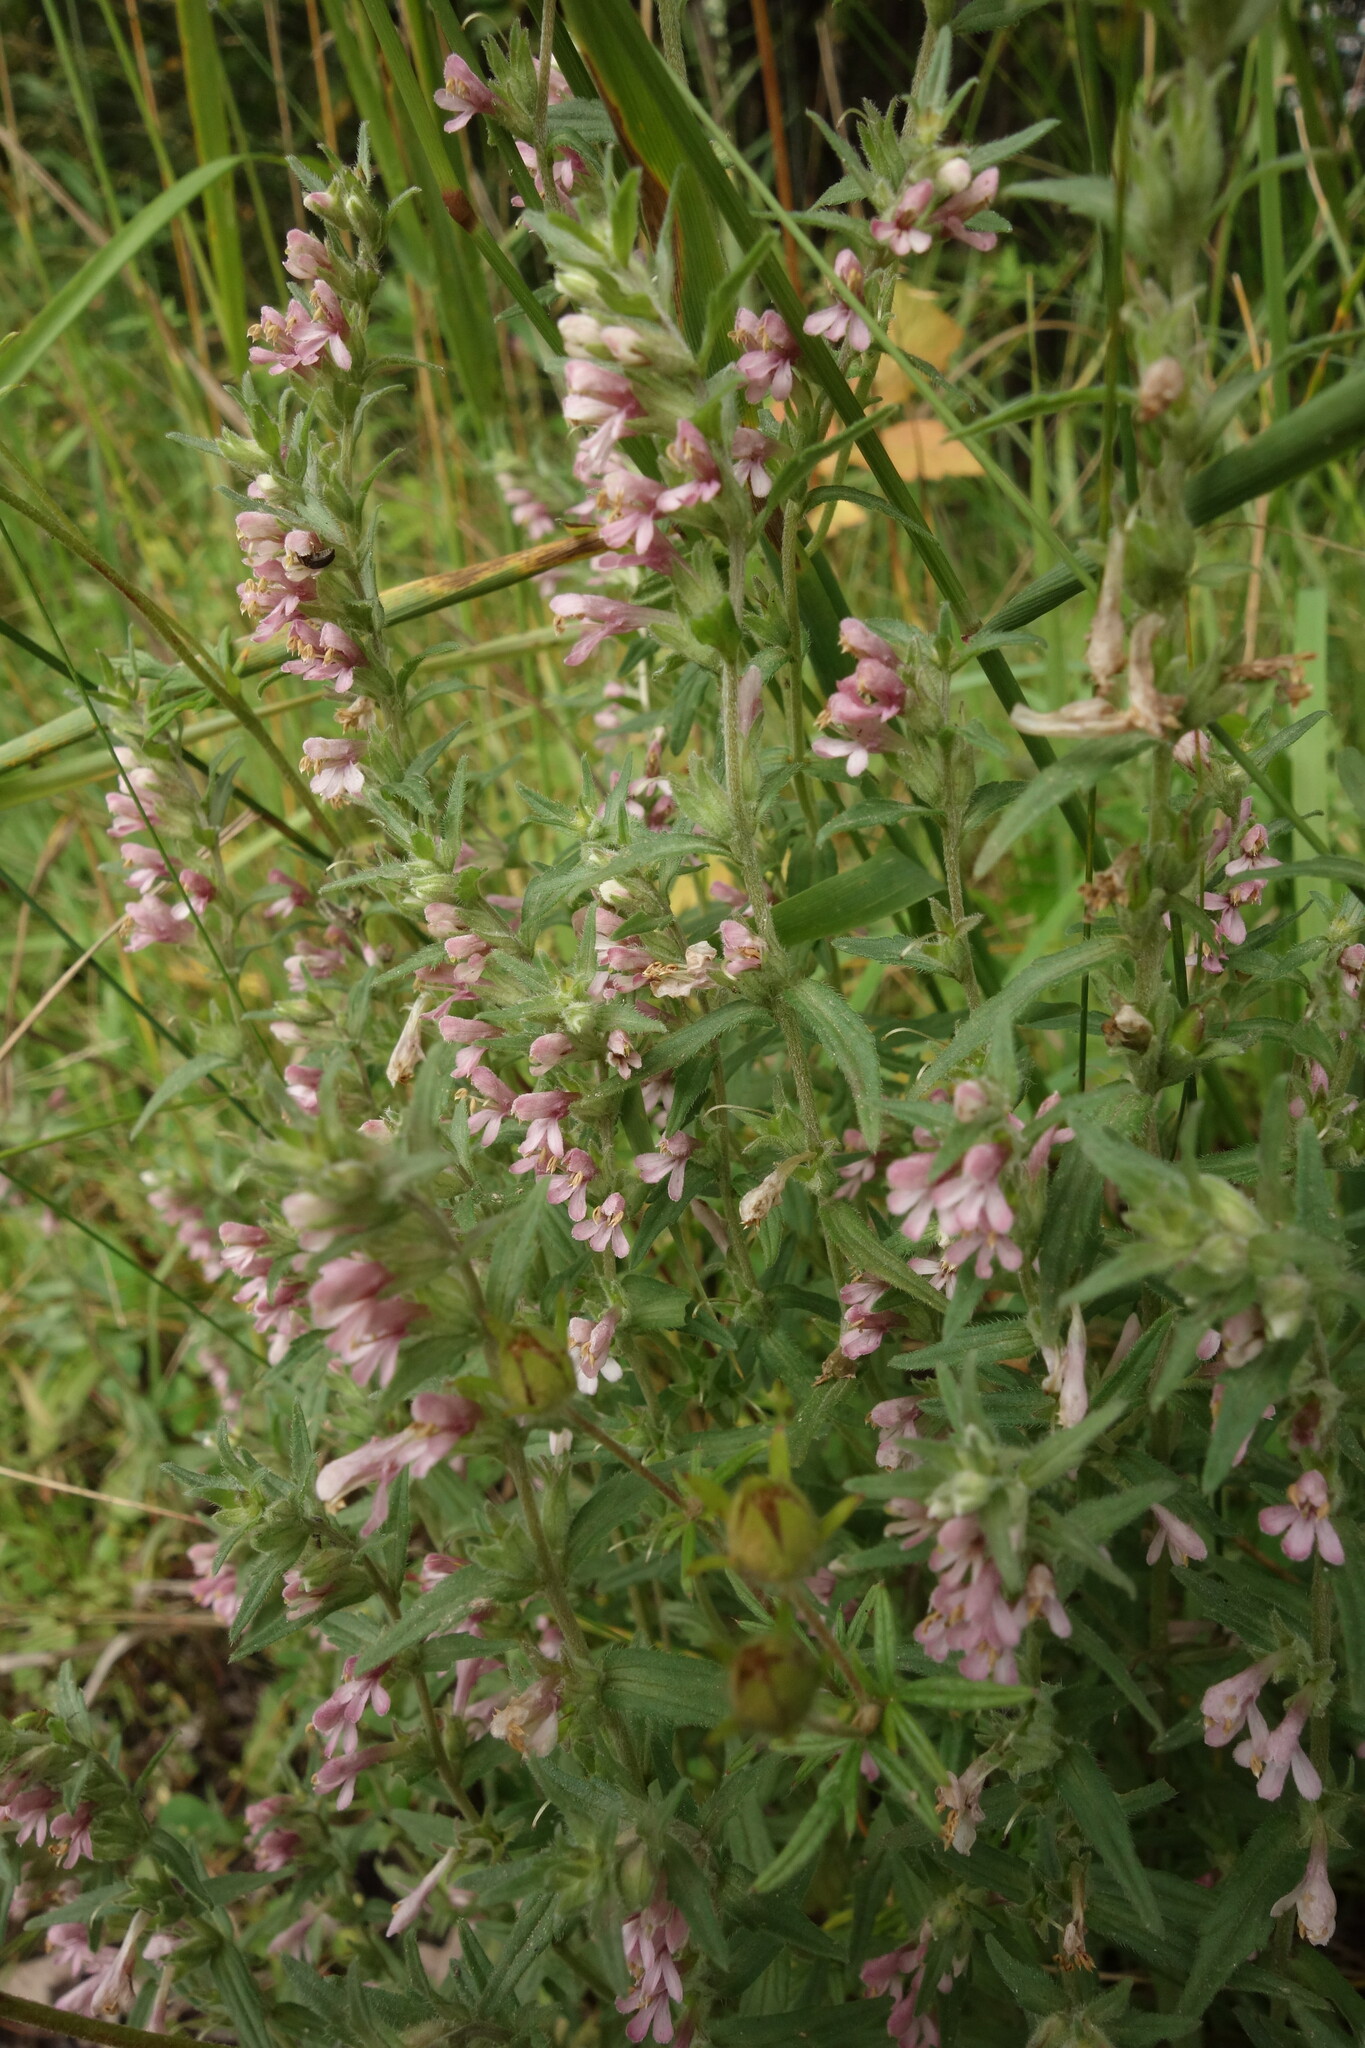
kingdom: Plantae
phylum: Tracheophyta
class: Magnoliopsida
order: Lamiales
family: Orobanchaceae
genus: Odontites
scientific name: Odontites vulgaris
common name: Broomrape
